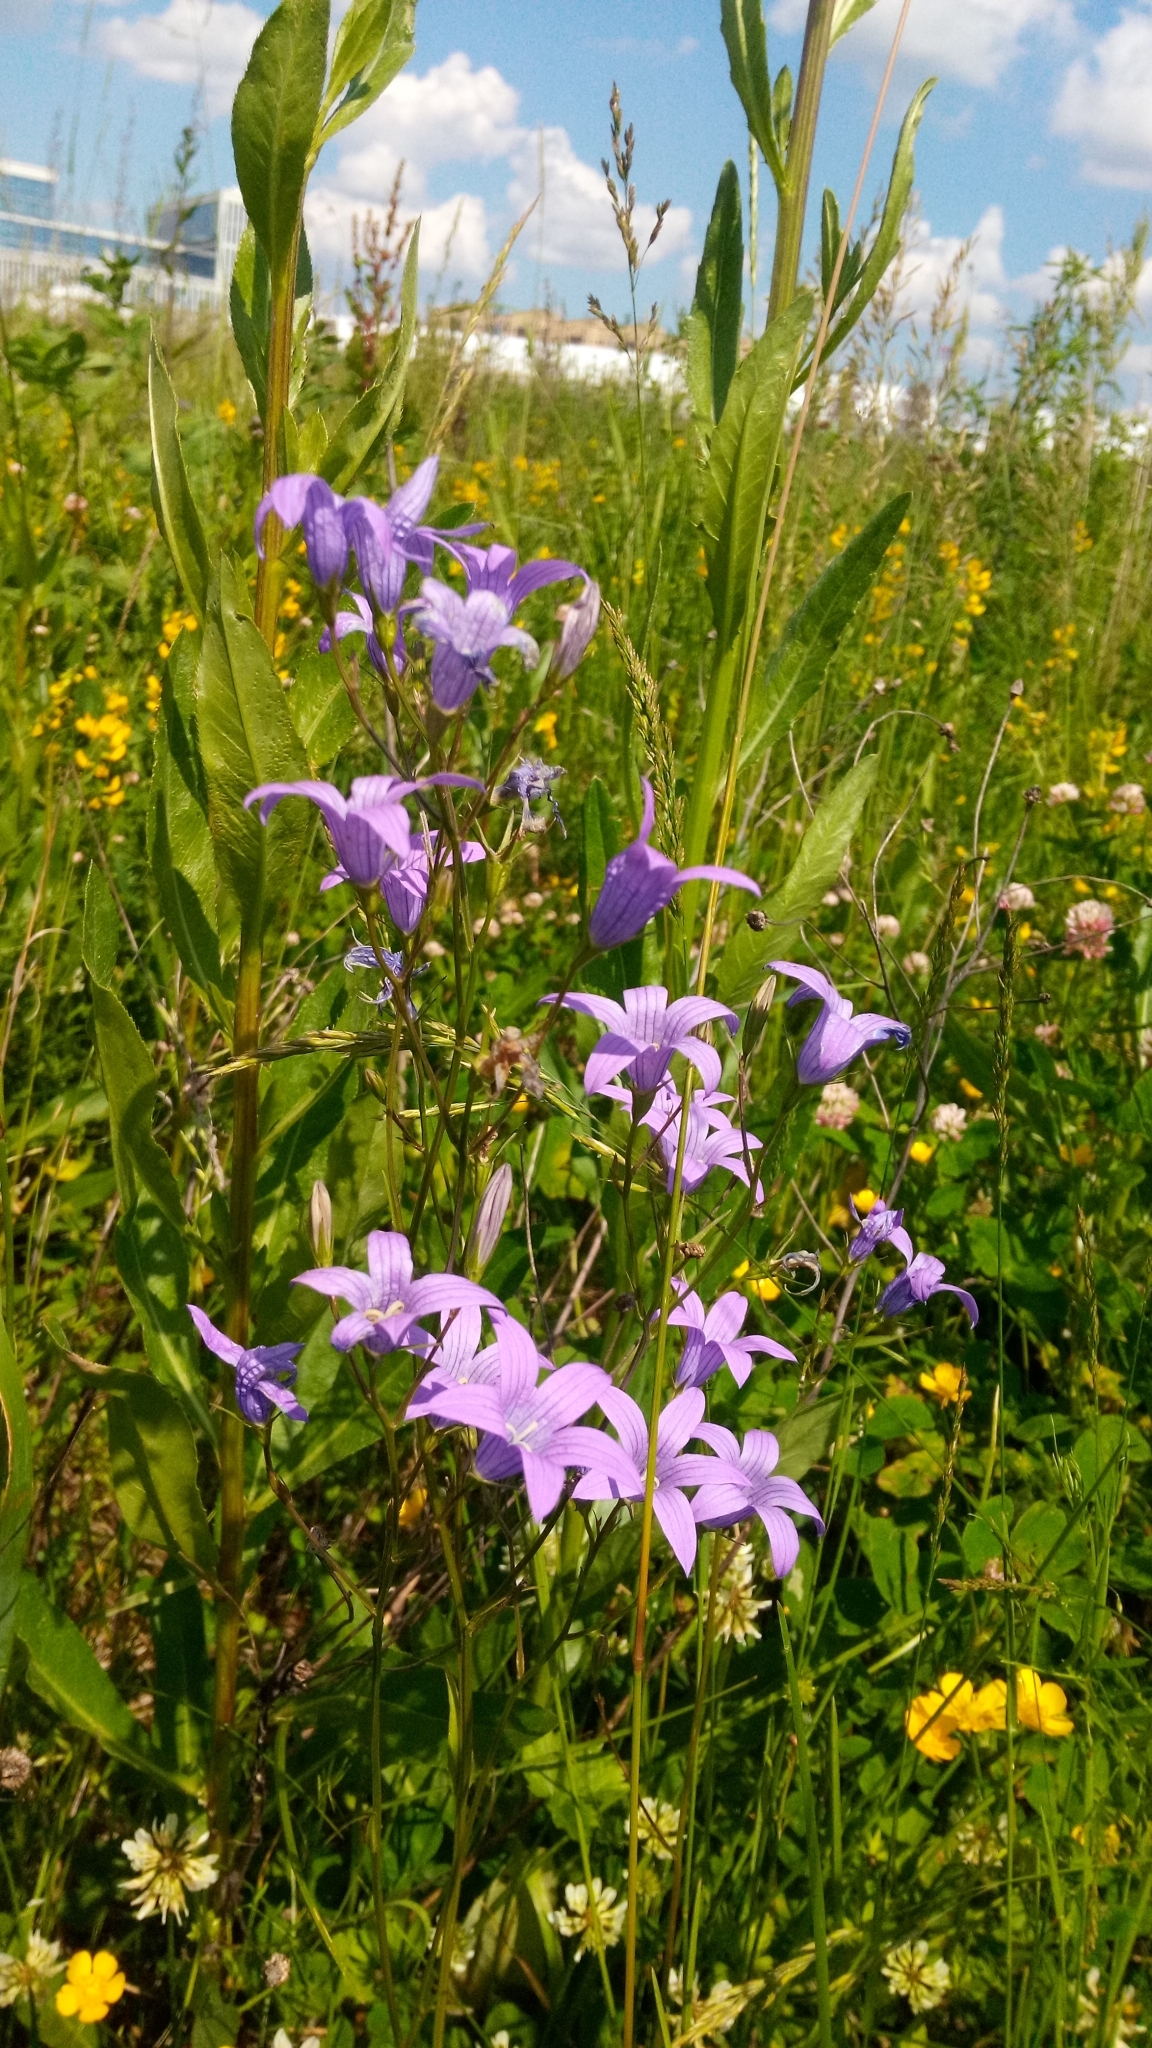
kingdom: Plantae
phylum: Tracheophyta
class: Magnoliopsida
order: Asterales
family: Campanulaceae
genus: Campanula
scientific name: Campanula patula
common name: Spreading bellflower
